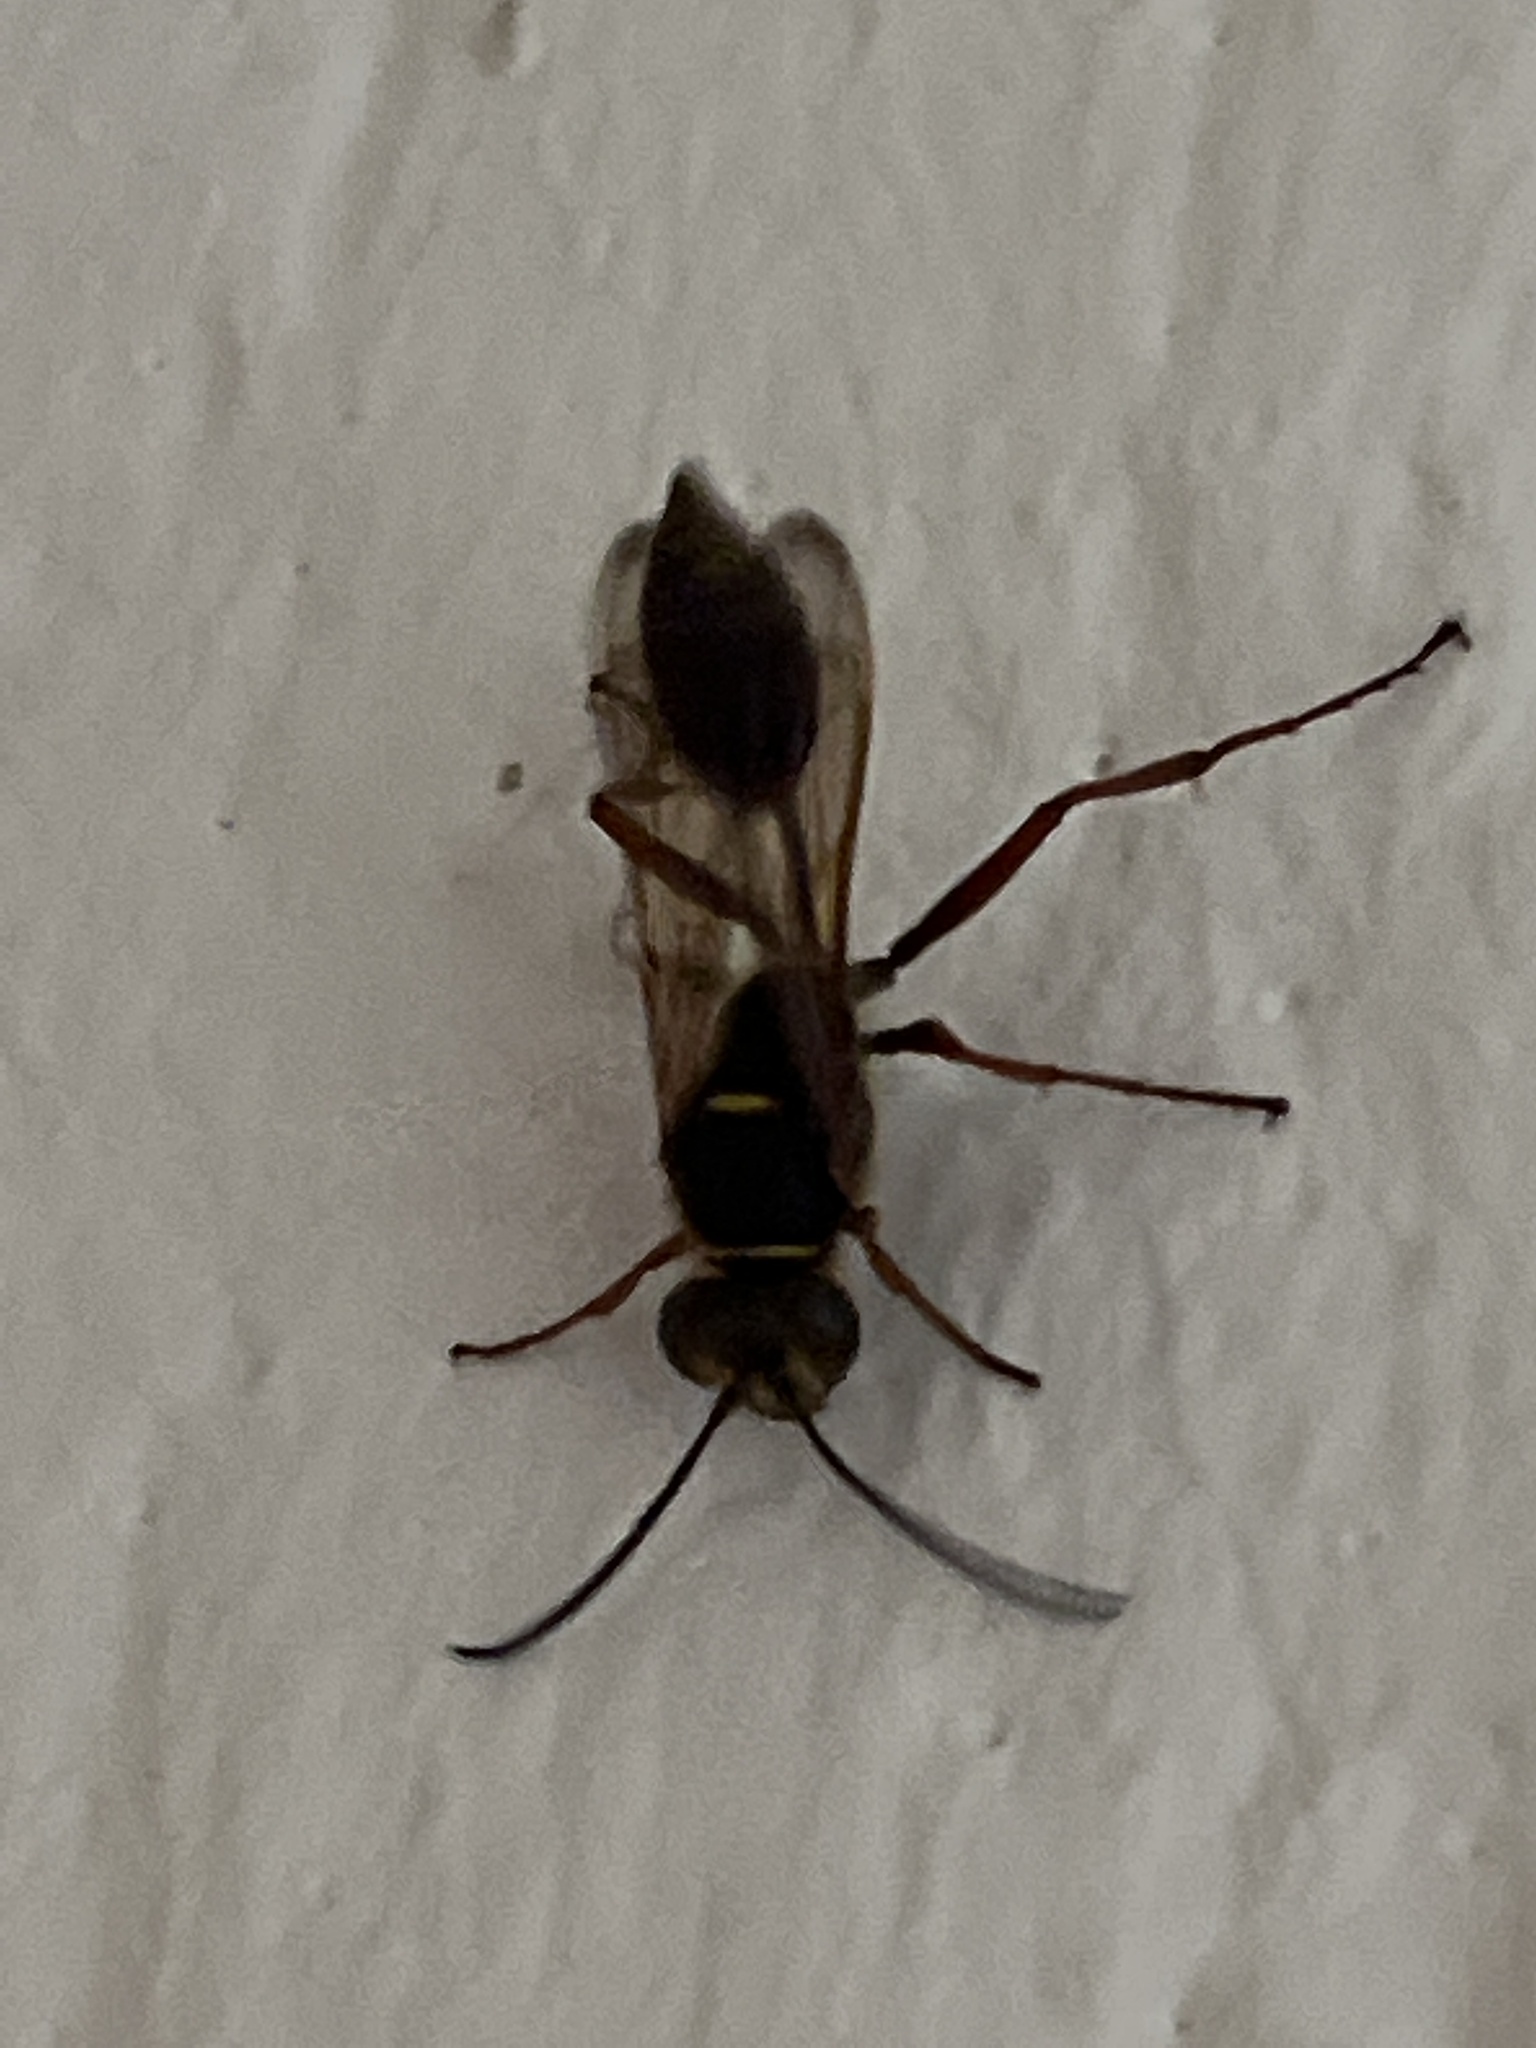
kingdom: Animalia
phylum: Arthropoda
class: Insecta
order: Hymenoptera
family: Sphecidae
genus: Sceliphron
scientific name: Sceliphron curvatum
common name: Pèlopèe
